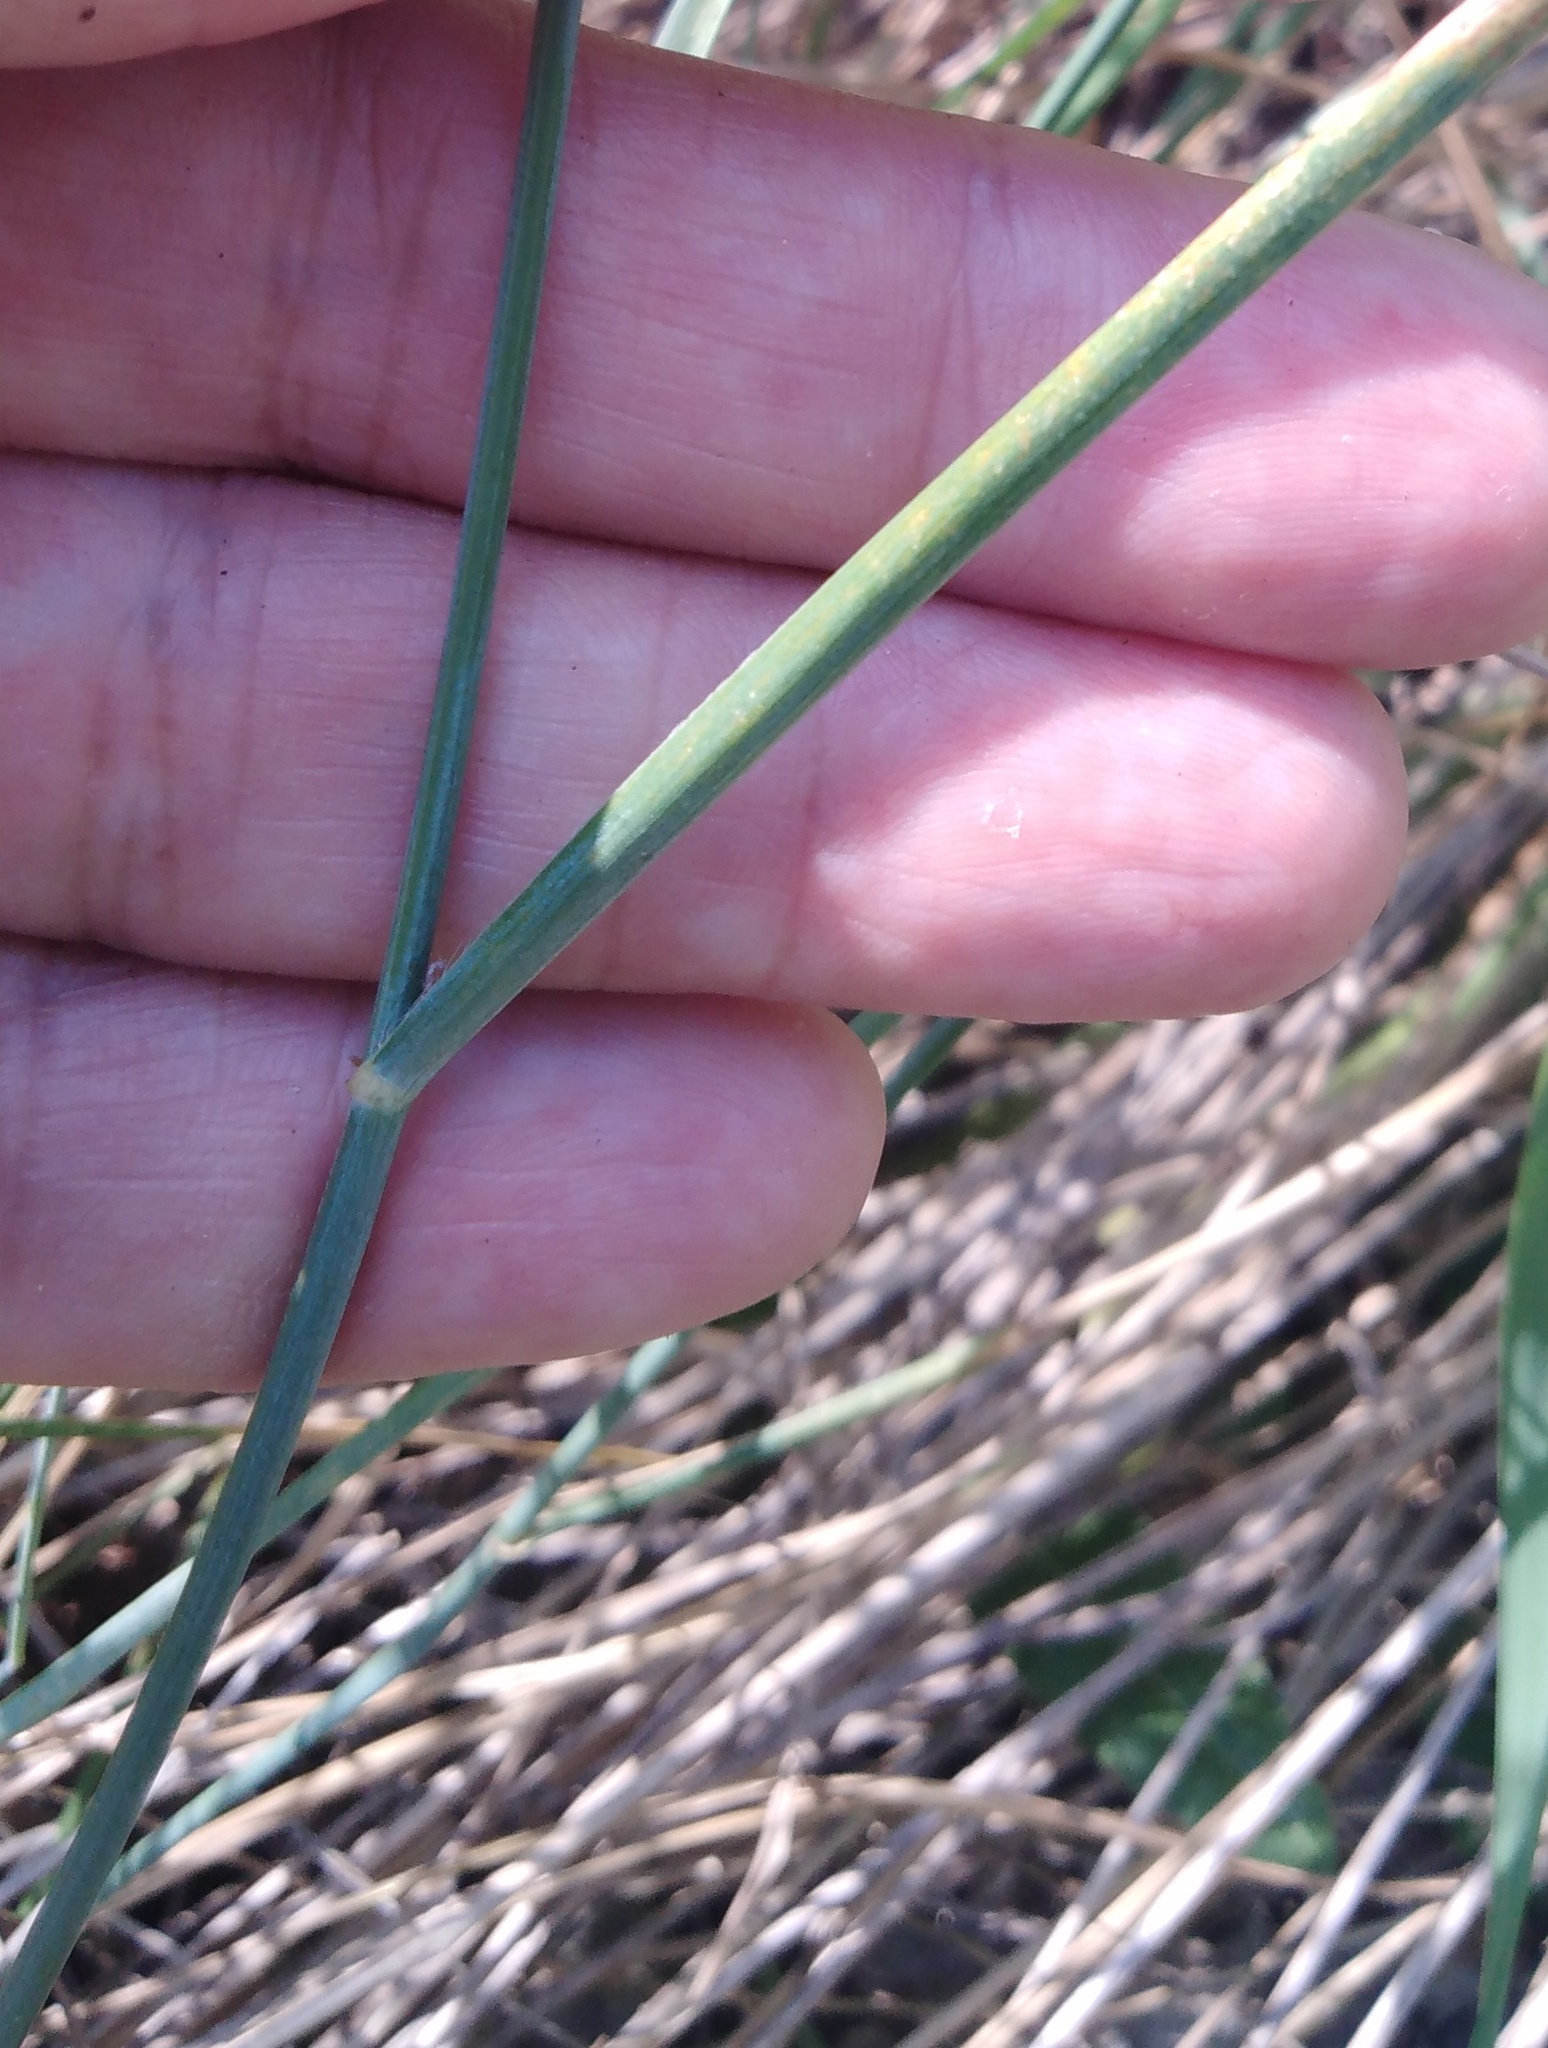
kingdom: Plantae
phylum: Tracheophyta
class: Liliopsida
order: Poales
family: Poaceae
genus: Elymus
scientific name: Elymus repens
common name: Quackgrass
